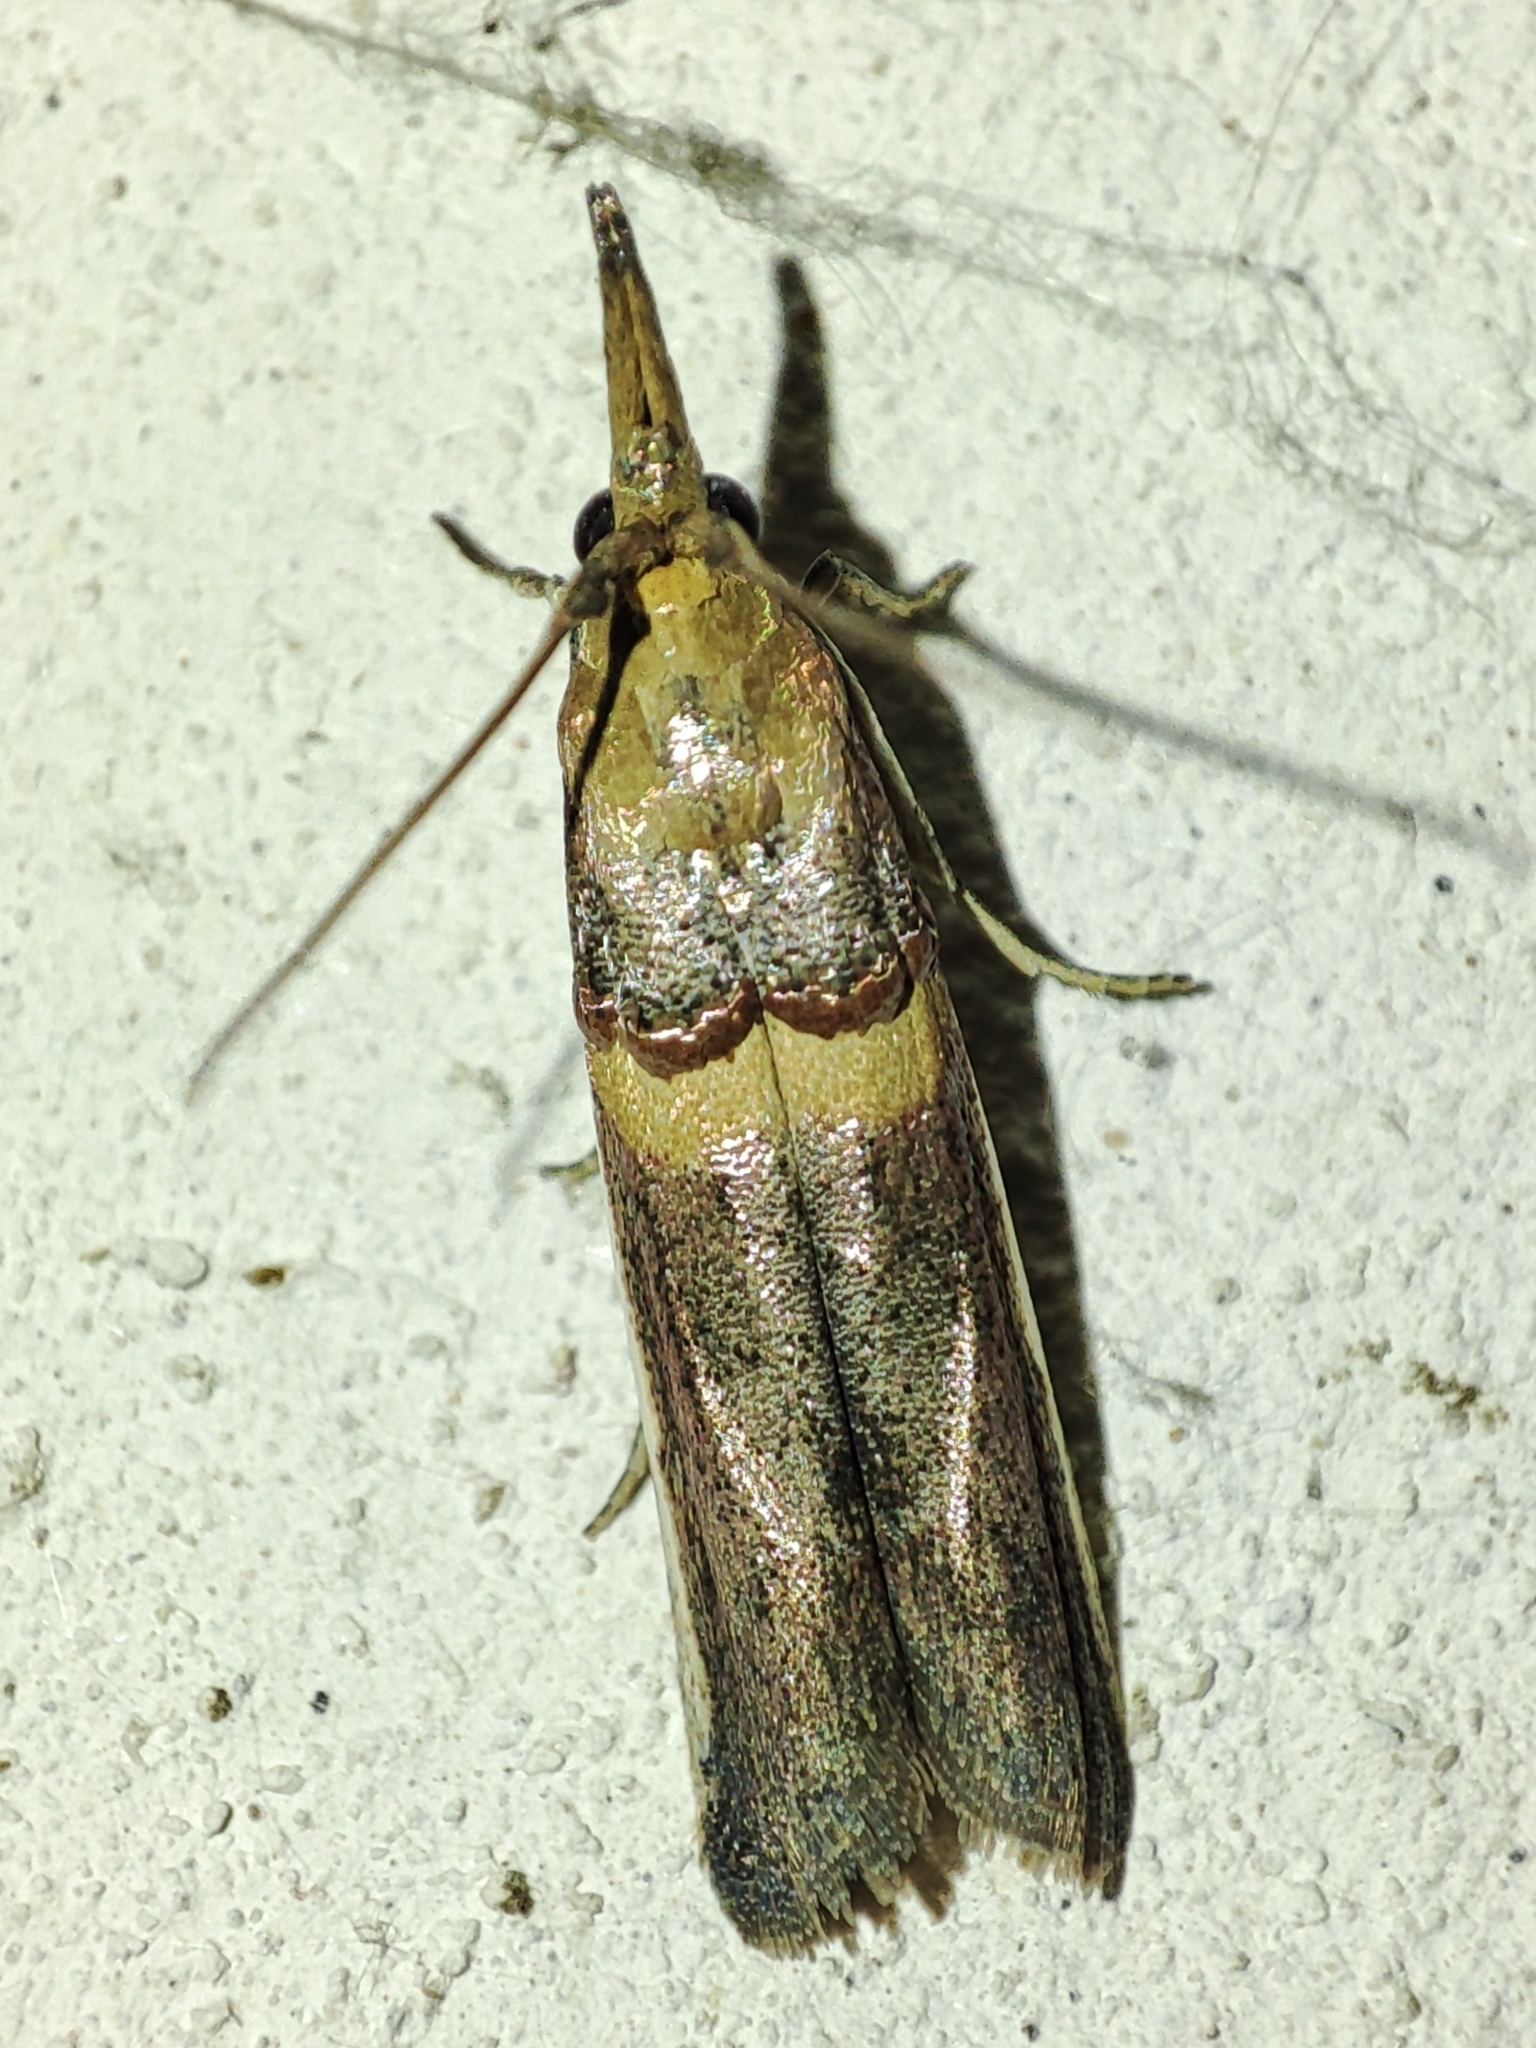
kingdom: Animalia
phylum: Arthropoda
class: Insecta
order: Lepidoptera
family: Pyralidae
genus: Etiella
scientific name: Etiella zinckenella
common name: Gold-banded etiella moth
